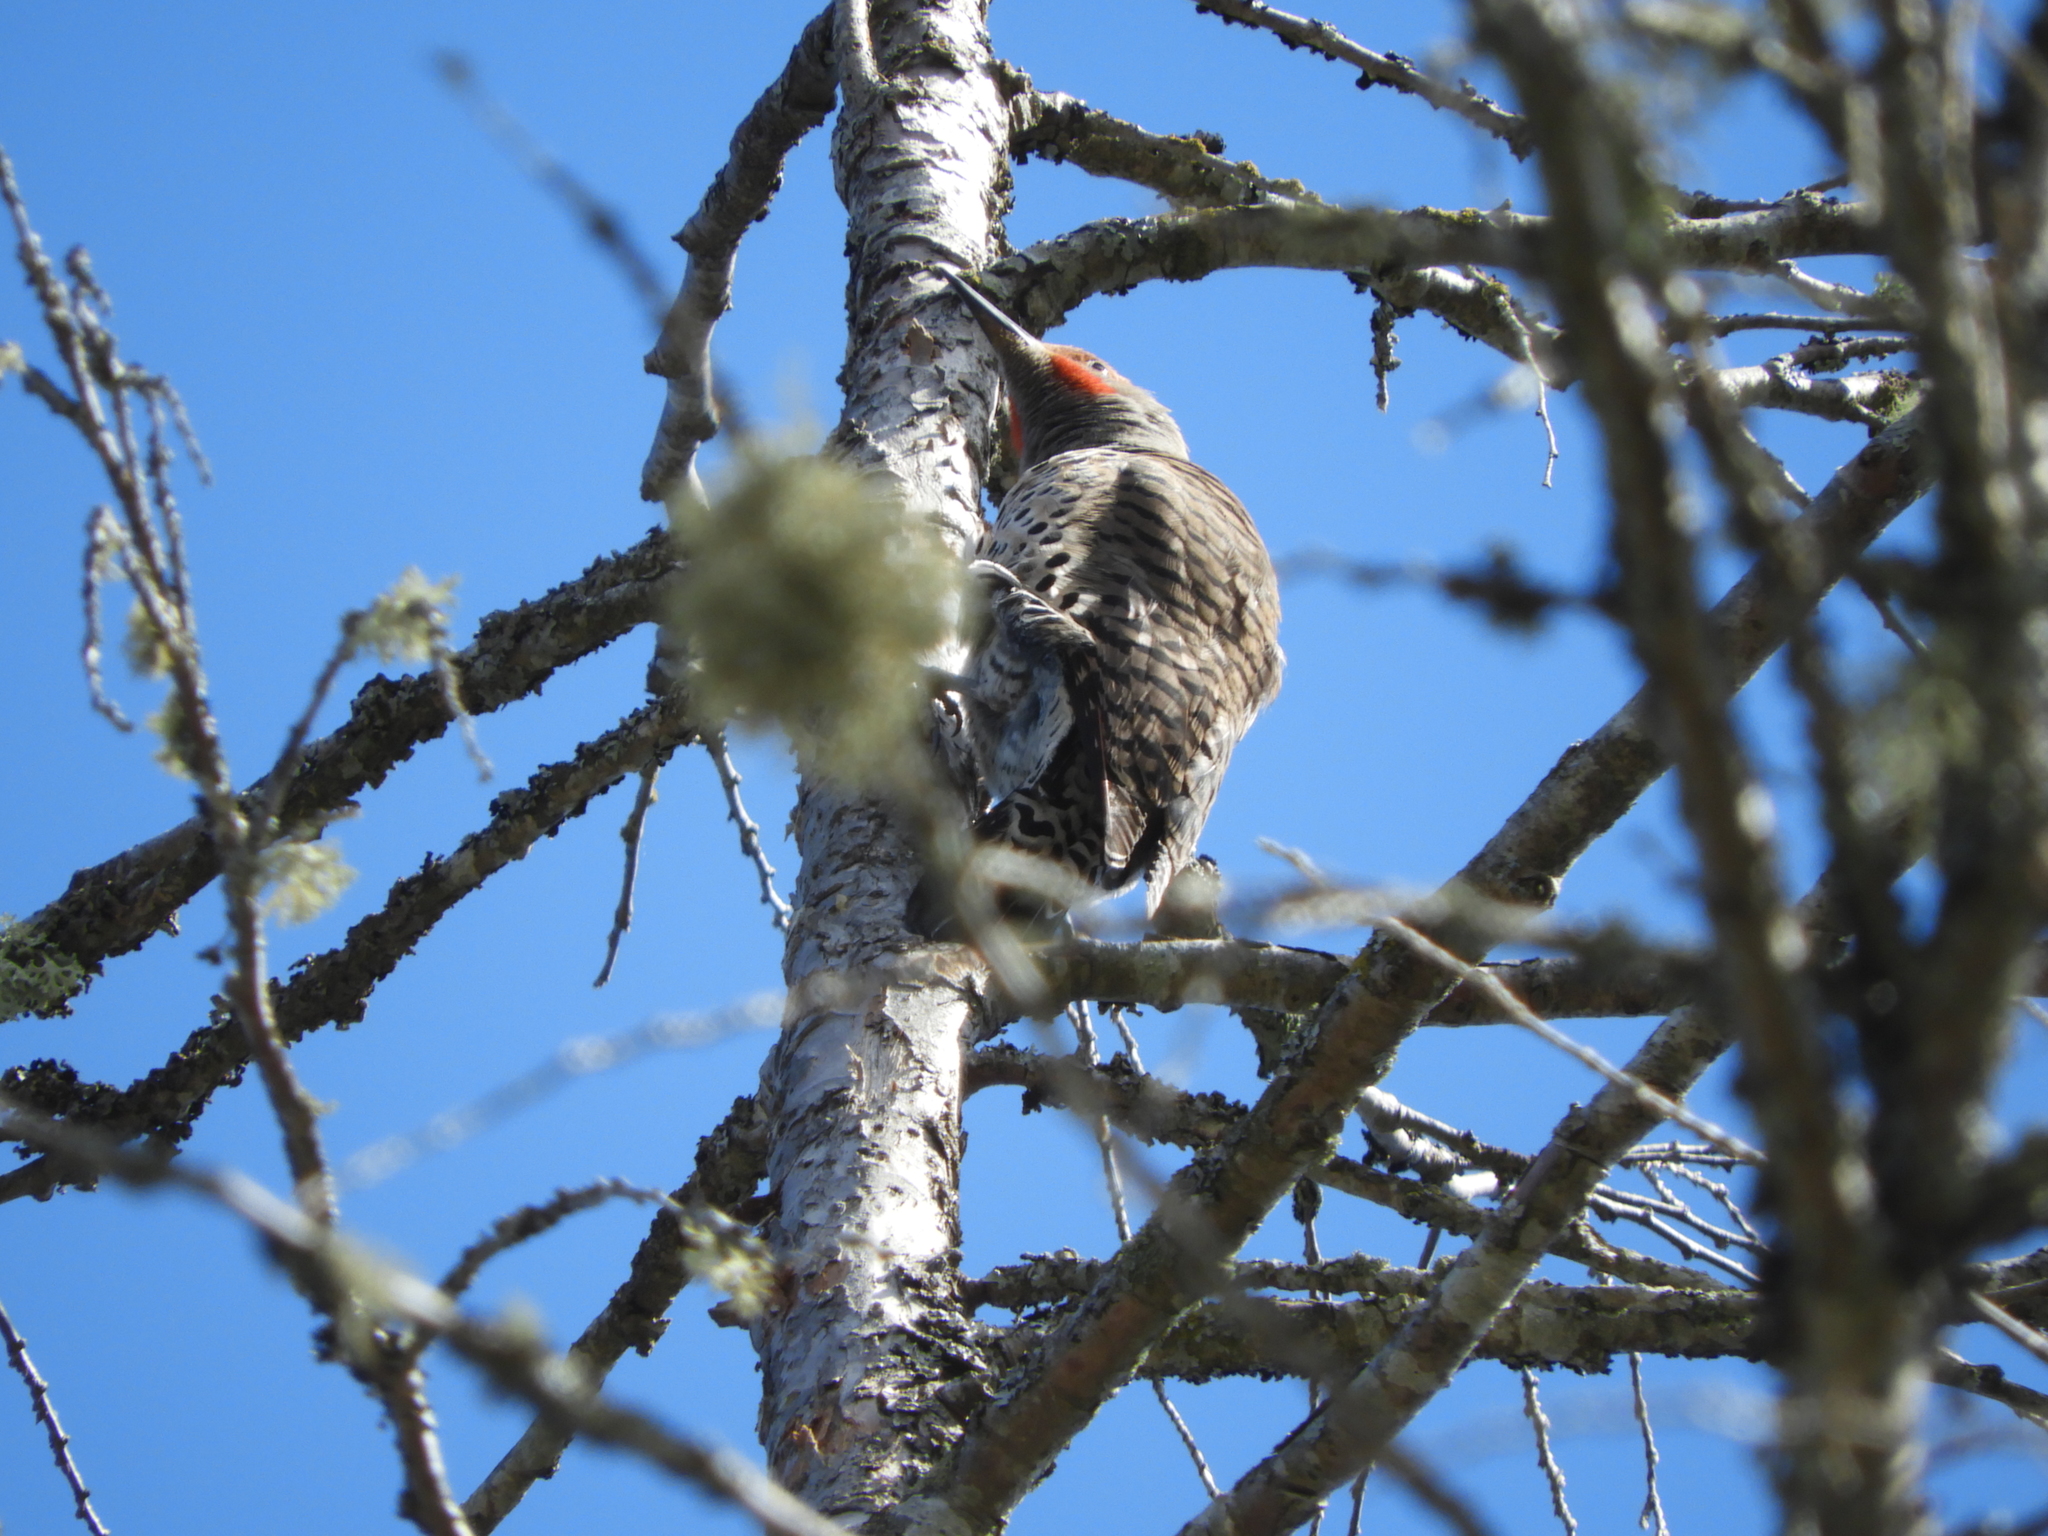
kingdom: Animalia
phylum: Chordata
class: Aves
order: Piciformes
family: Picidae
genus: Colaptes
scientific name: Colaptes auratus
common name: Northern flicker
